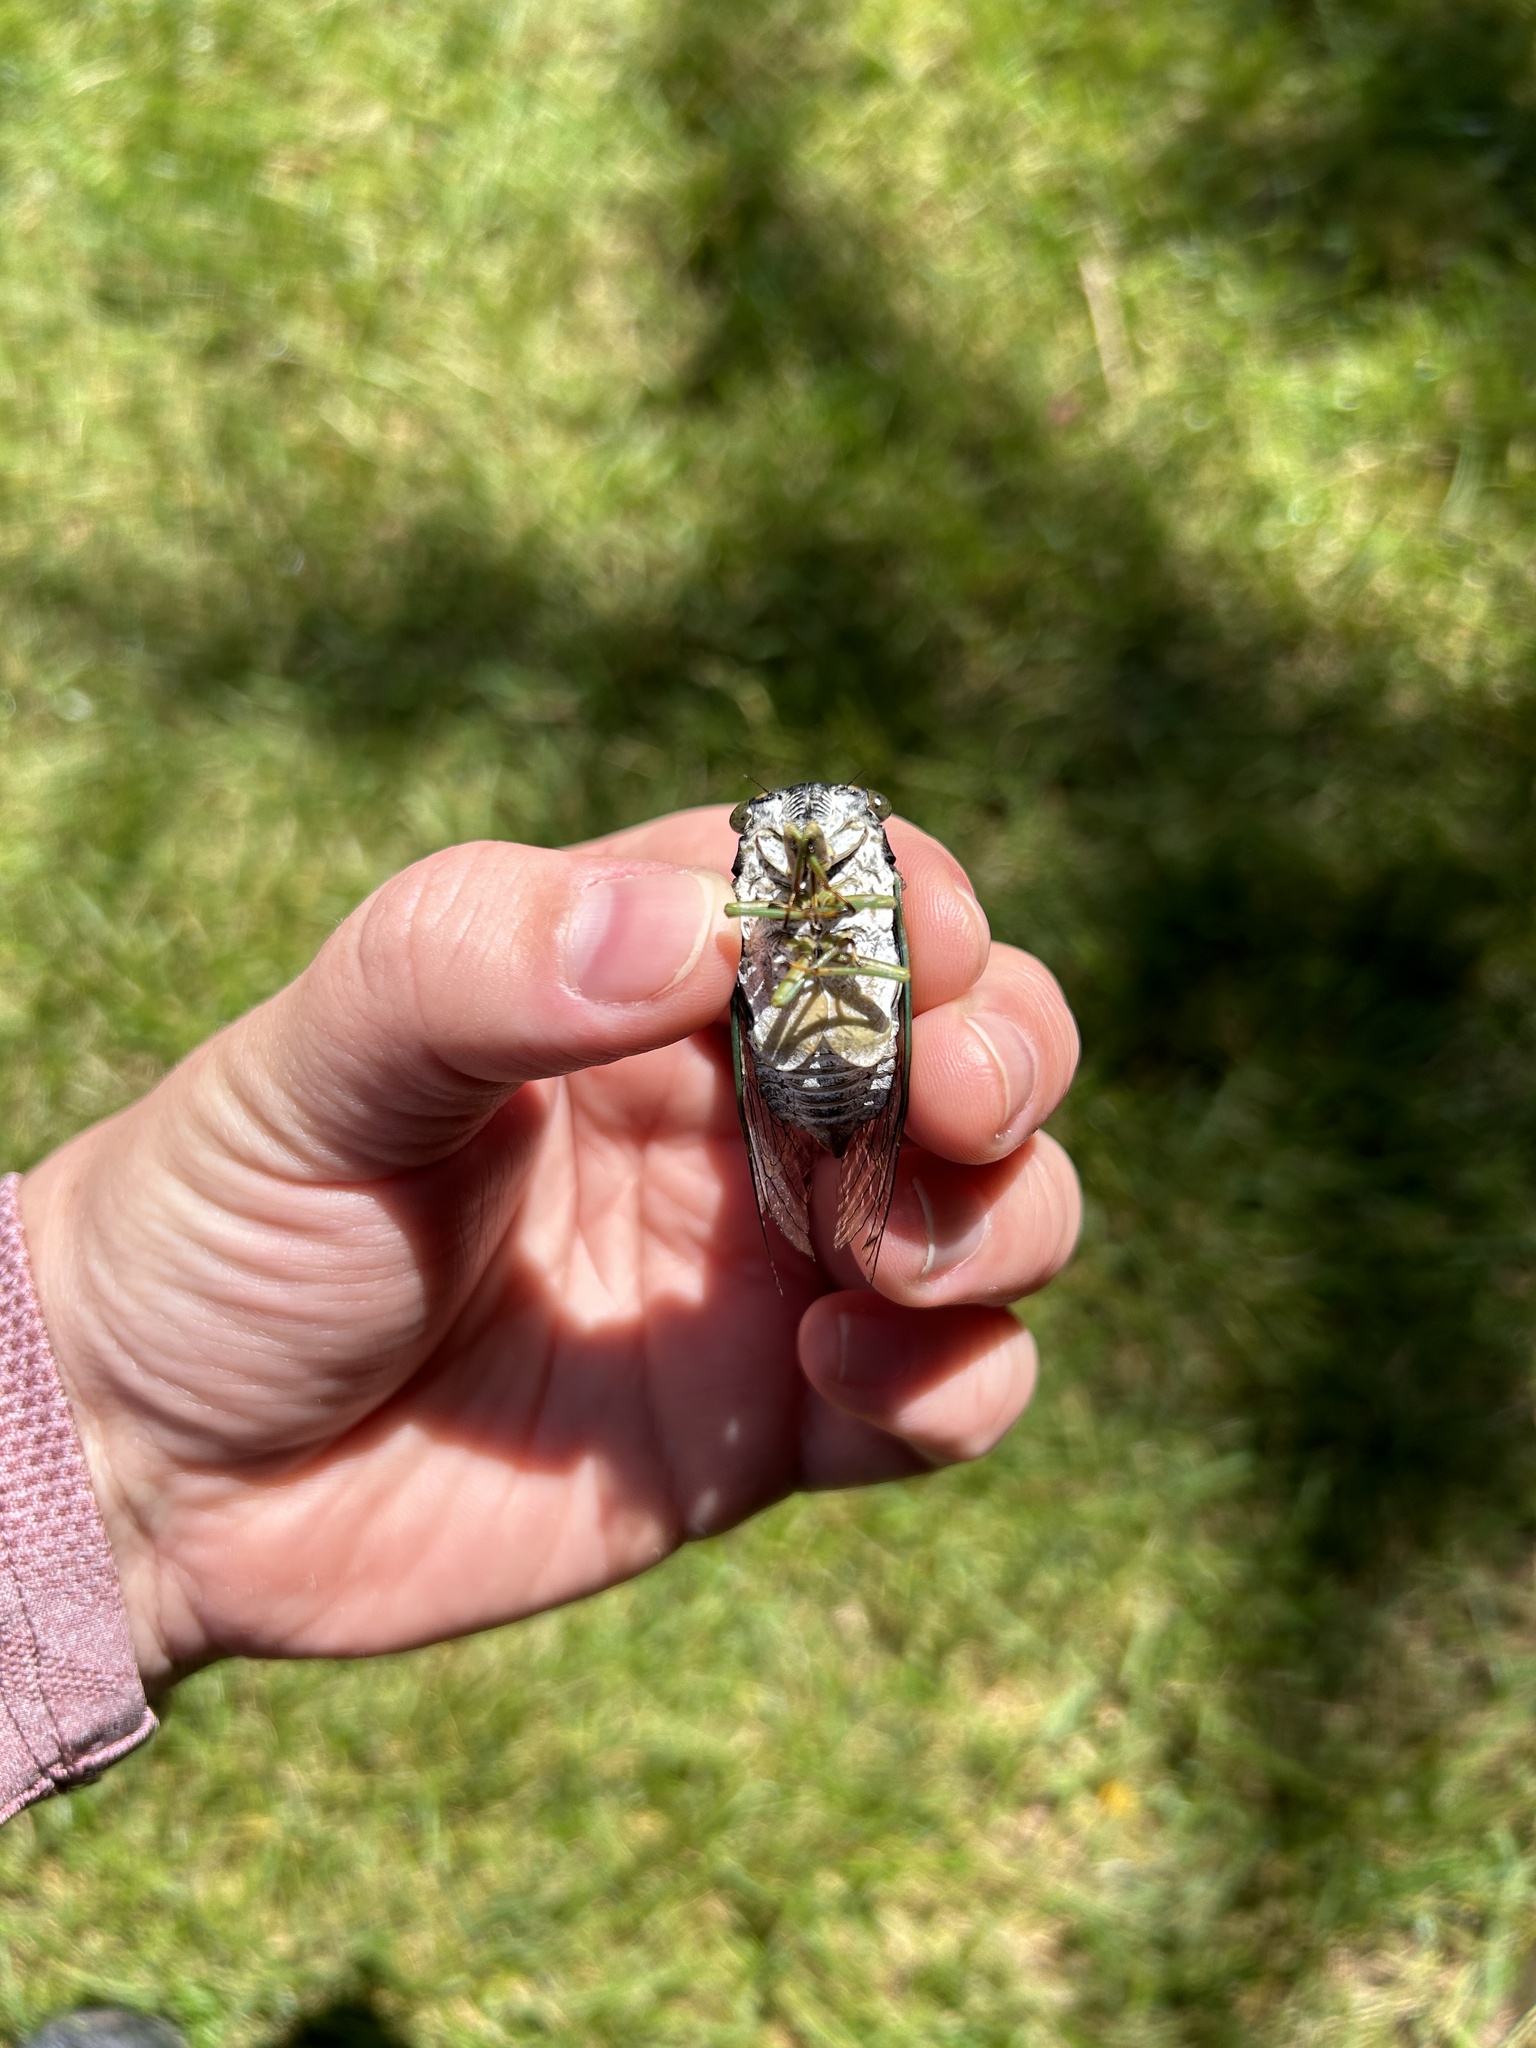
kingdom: Animalia
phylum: Arthropoda
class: Insecta
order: Hemiptera
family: Cicadidae
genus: Neotibicen
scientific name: Neotibicen tibicen
